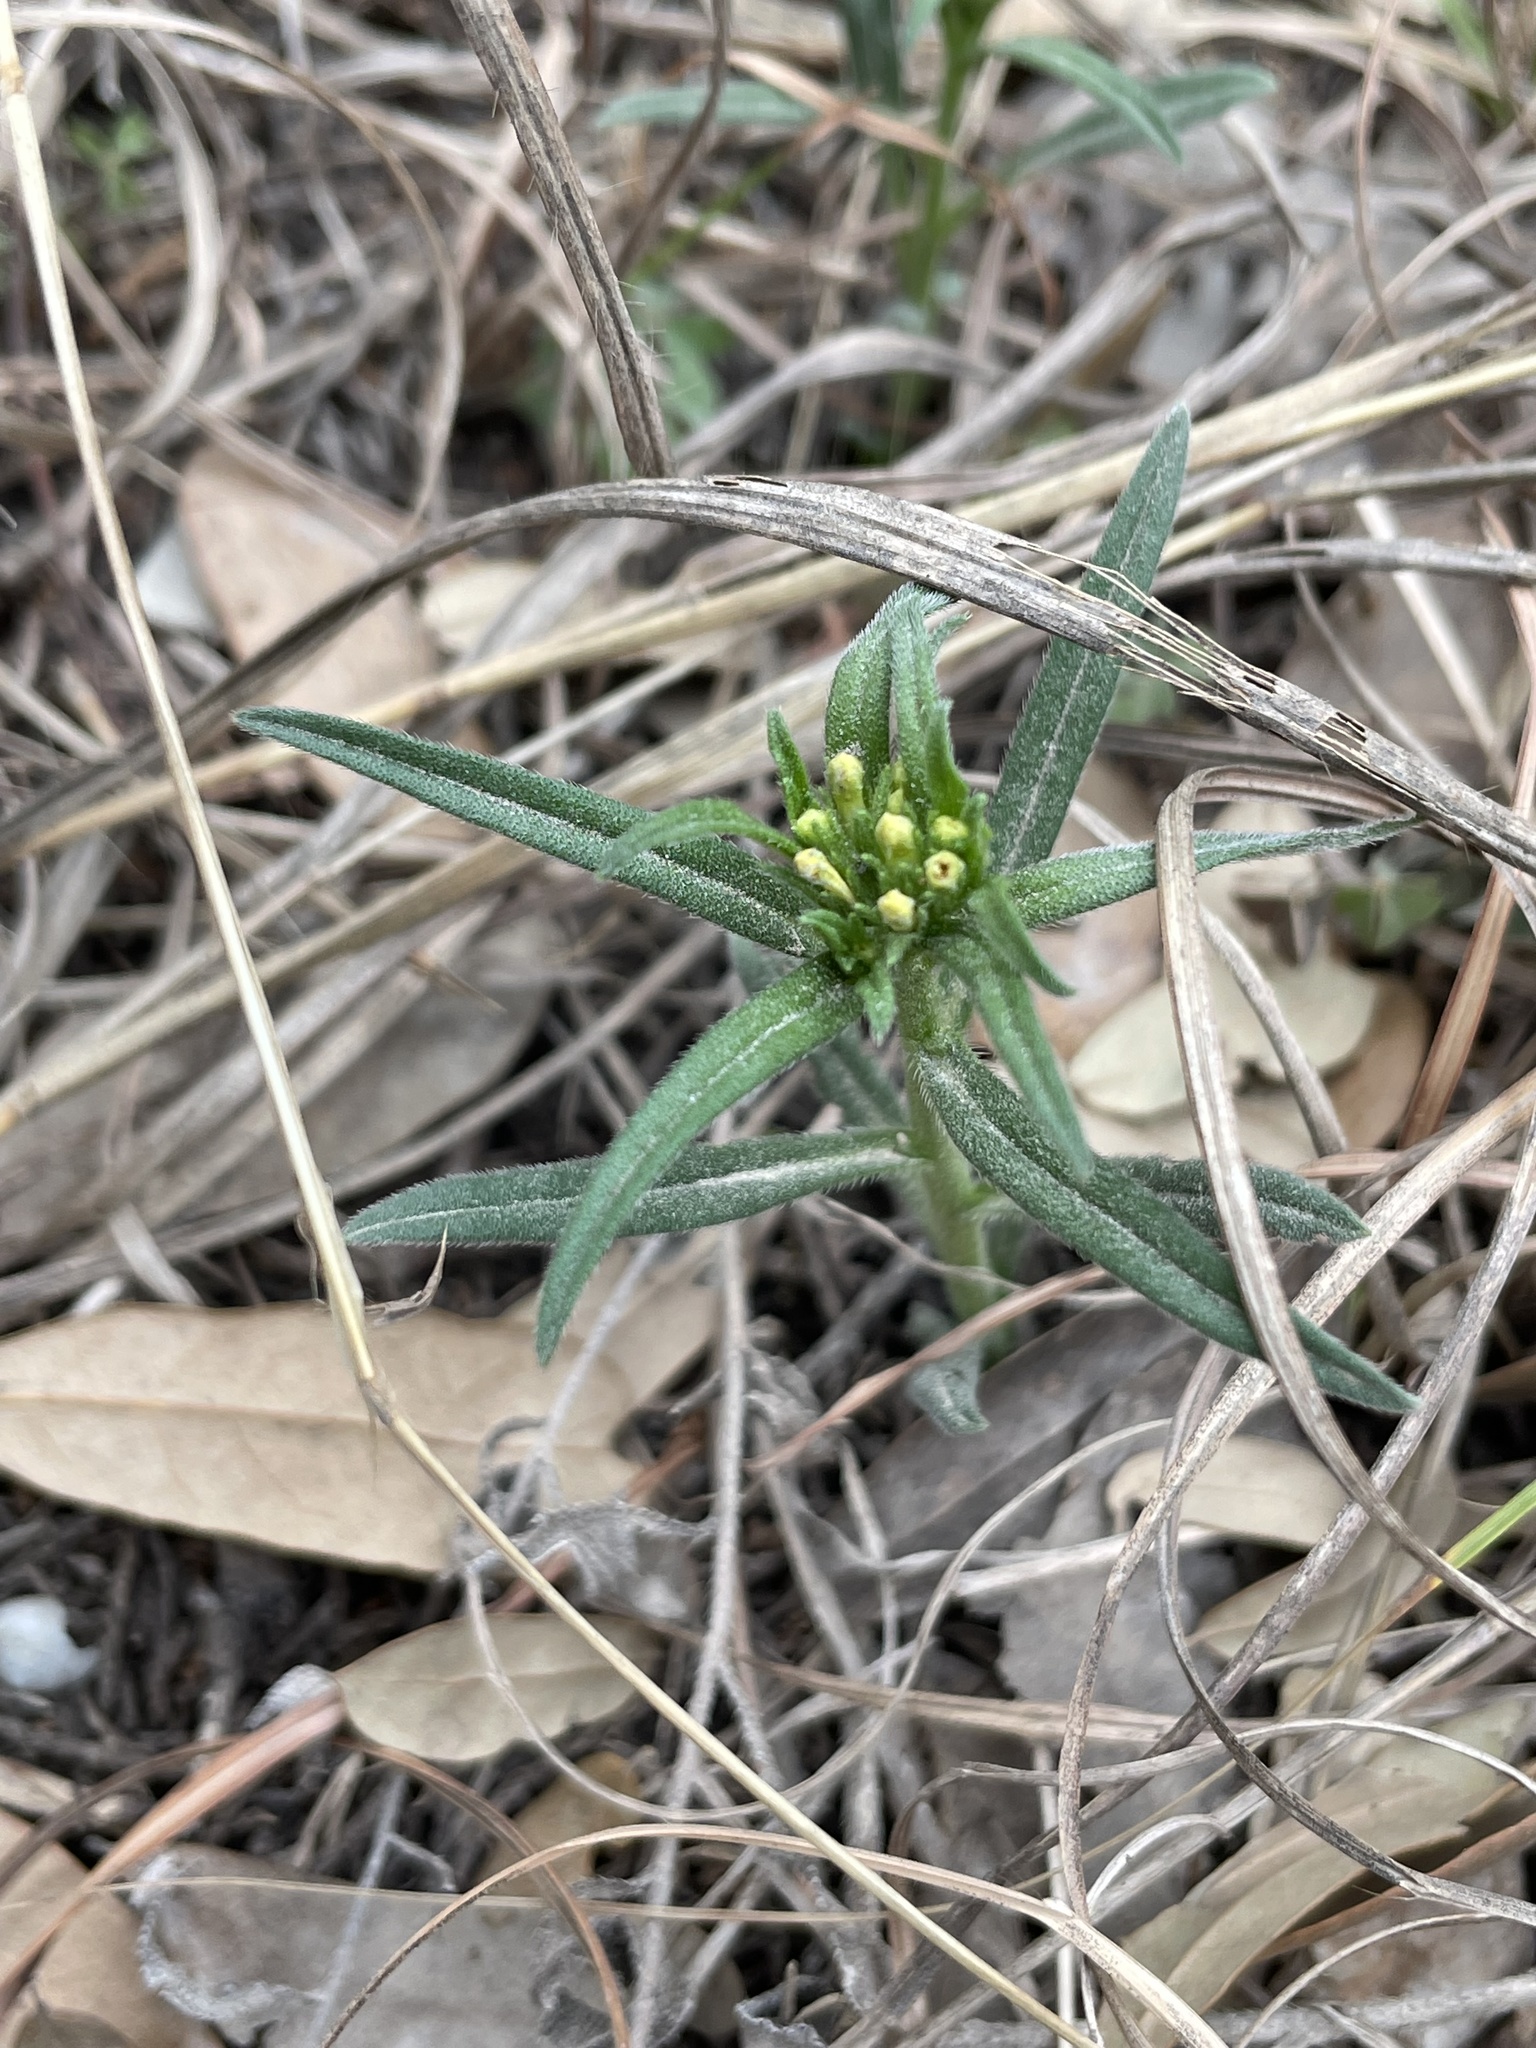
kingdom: Plantae
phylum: Tracheophyta
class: Magnoliopsida
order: Boraginales
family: Boraginaceae
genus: Lithospermum
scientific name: Lithospermum incisum
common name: Fringed gromwell
